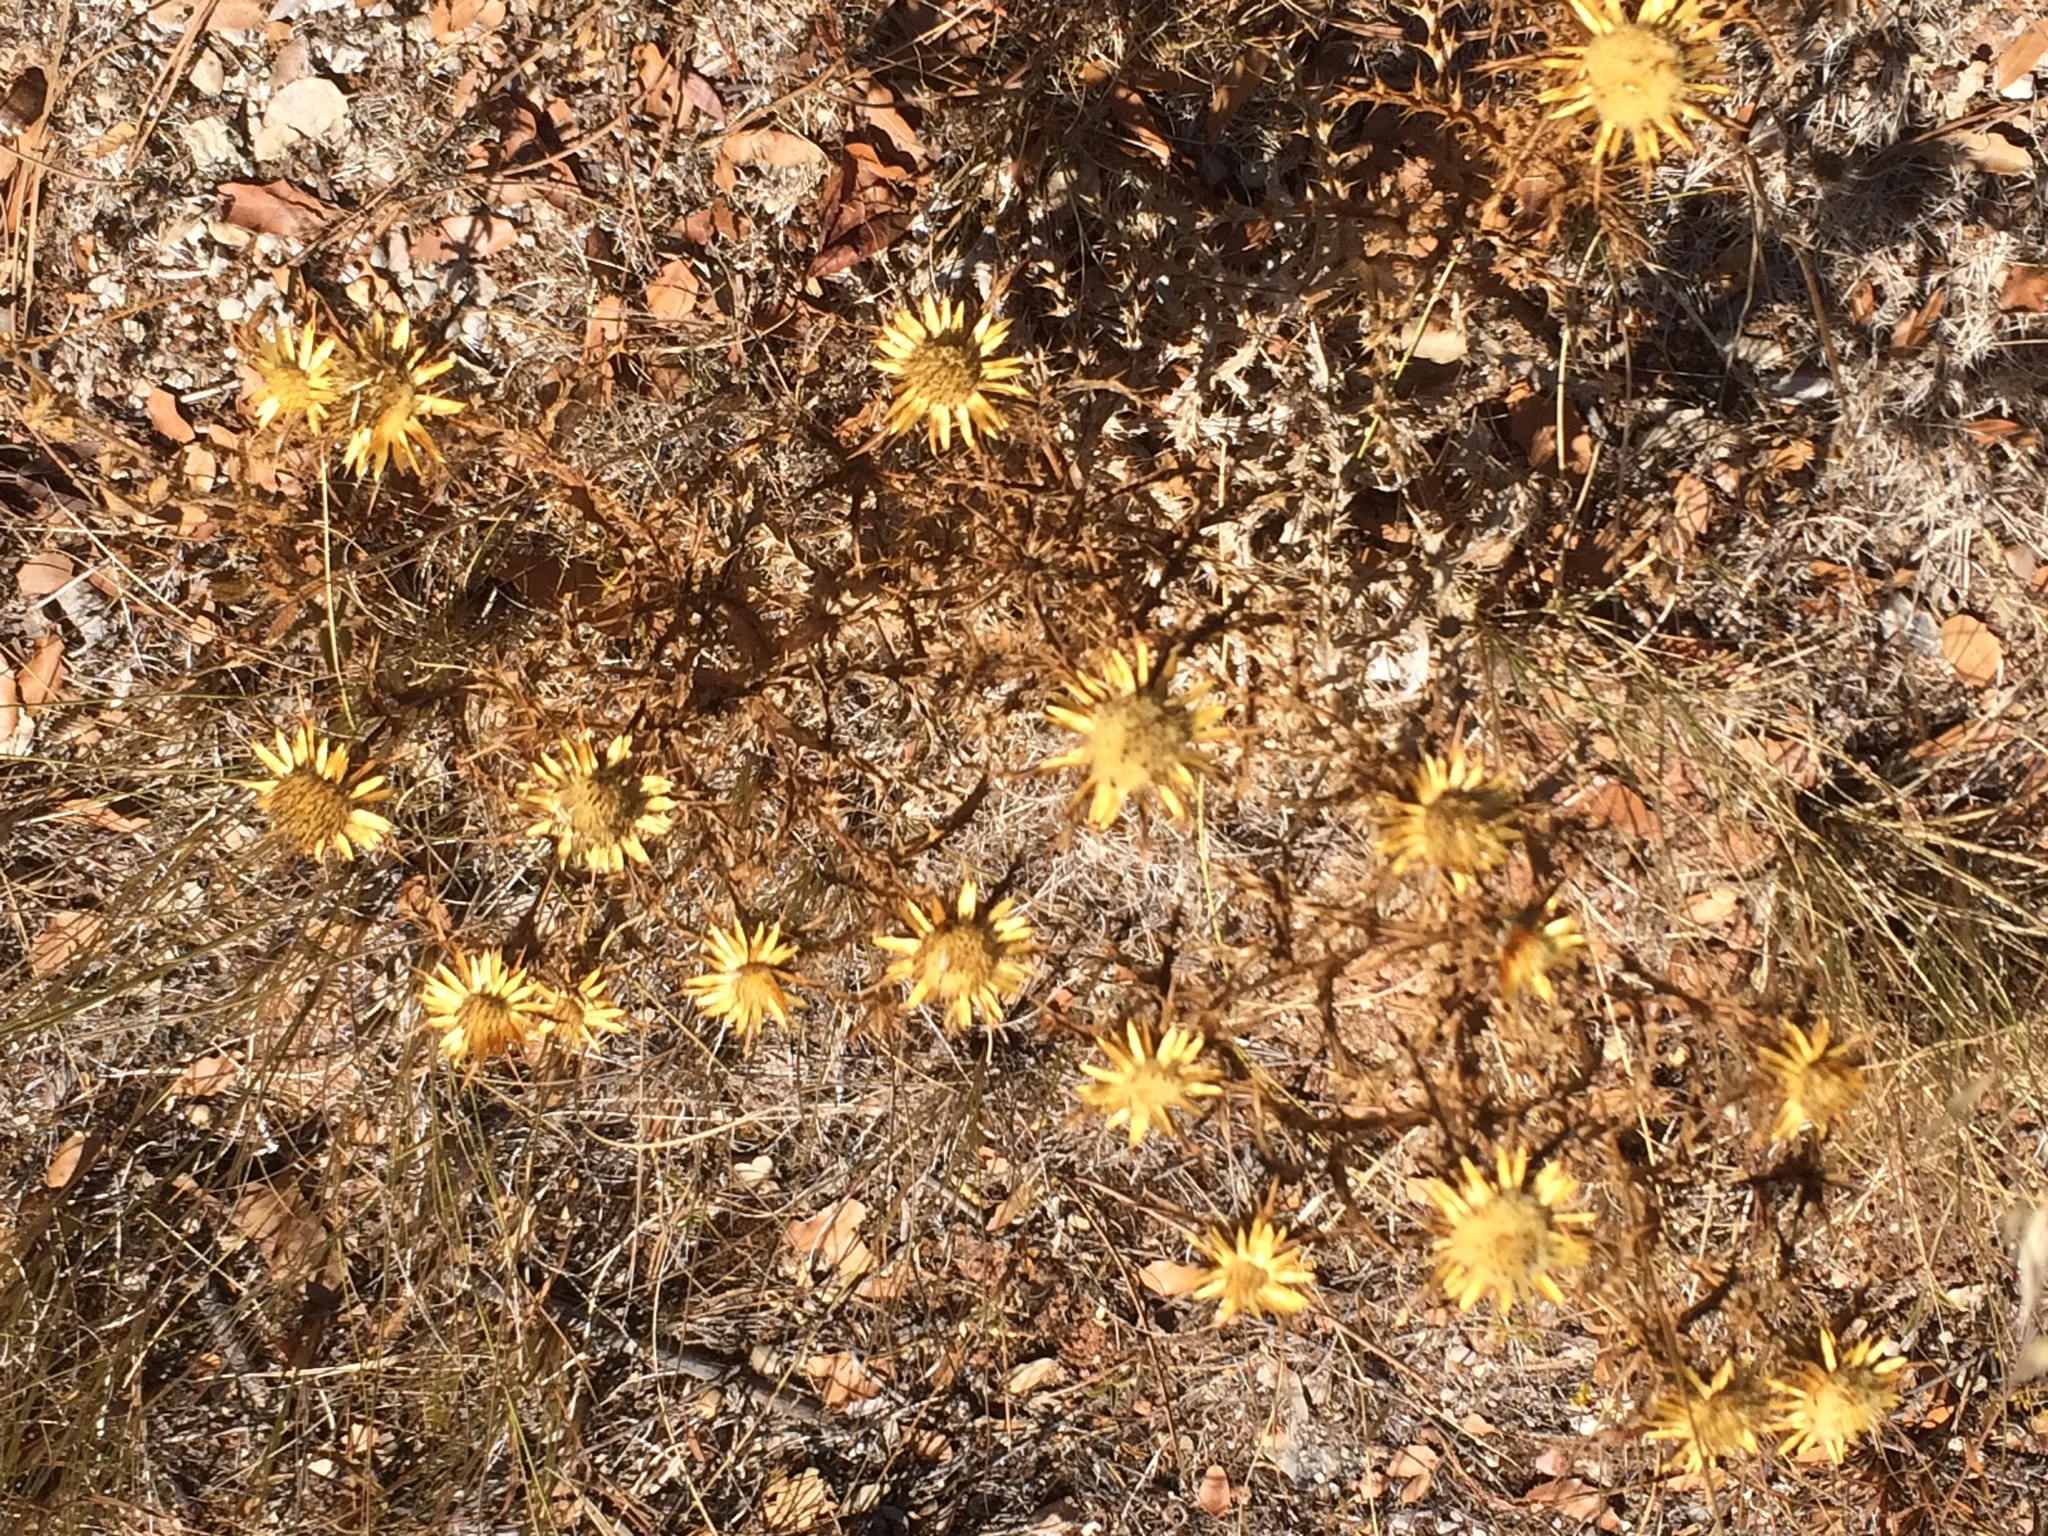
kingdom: Plantae
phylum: Tracheophyta
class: Magnoliopsida
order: Asterales
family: Asteraceae
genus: Carlina
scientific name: Carlina hispanica
